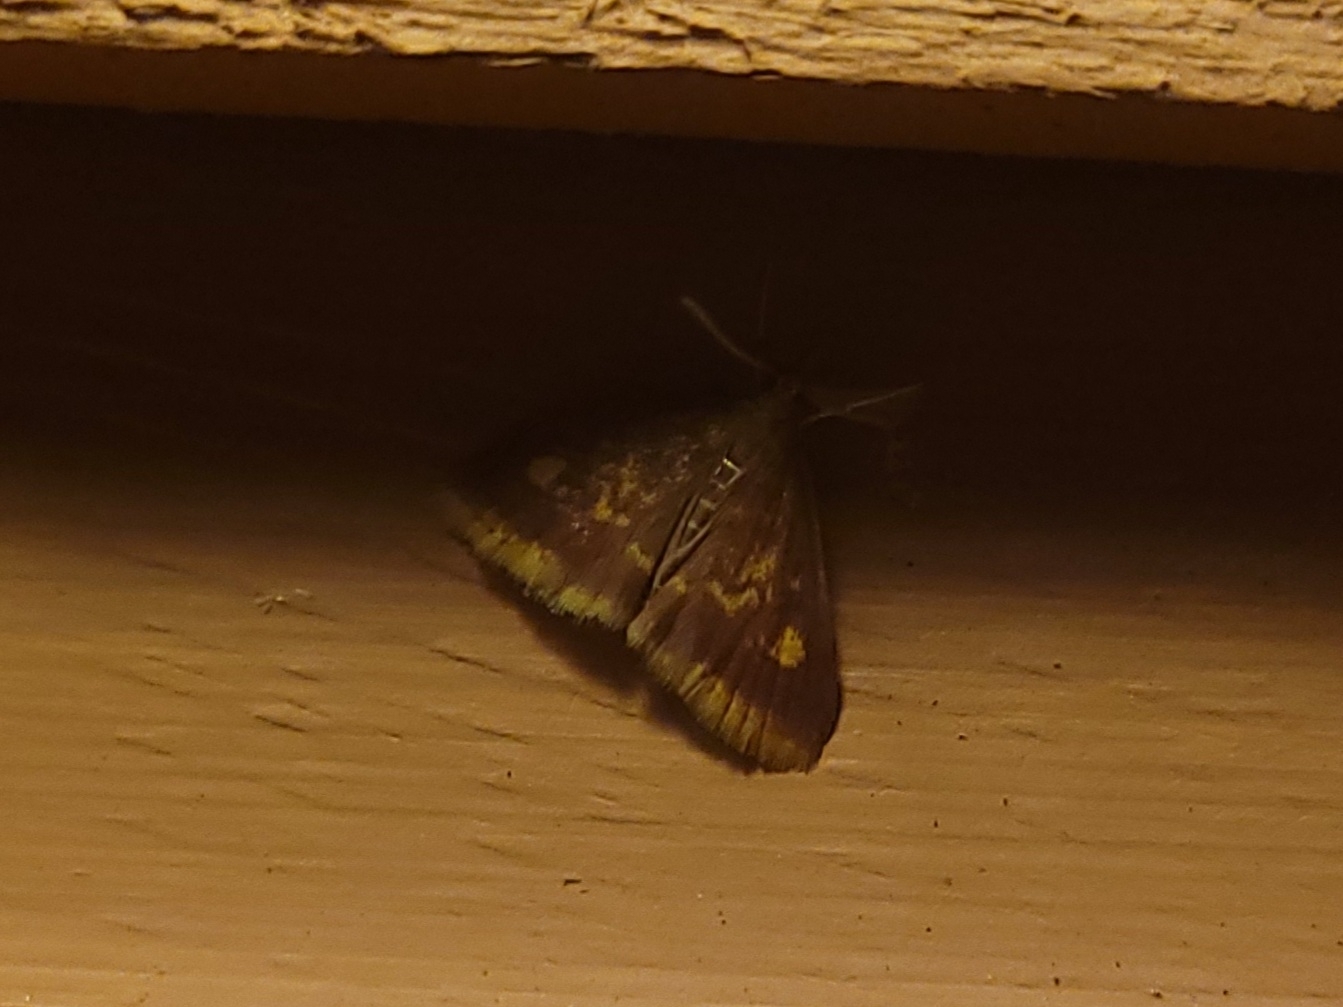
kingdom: Animalia
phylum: Arthropoda
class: Insecta
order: Lepidoptera
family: Crambidae
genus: Pyrausta
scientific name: Pyrausta acrionalis
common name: Mint-loving pyrausta moth
